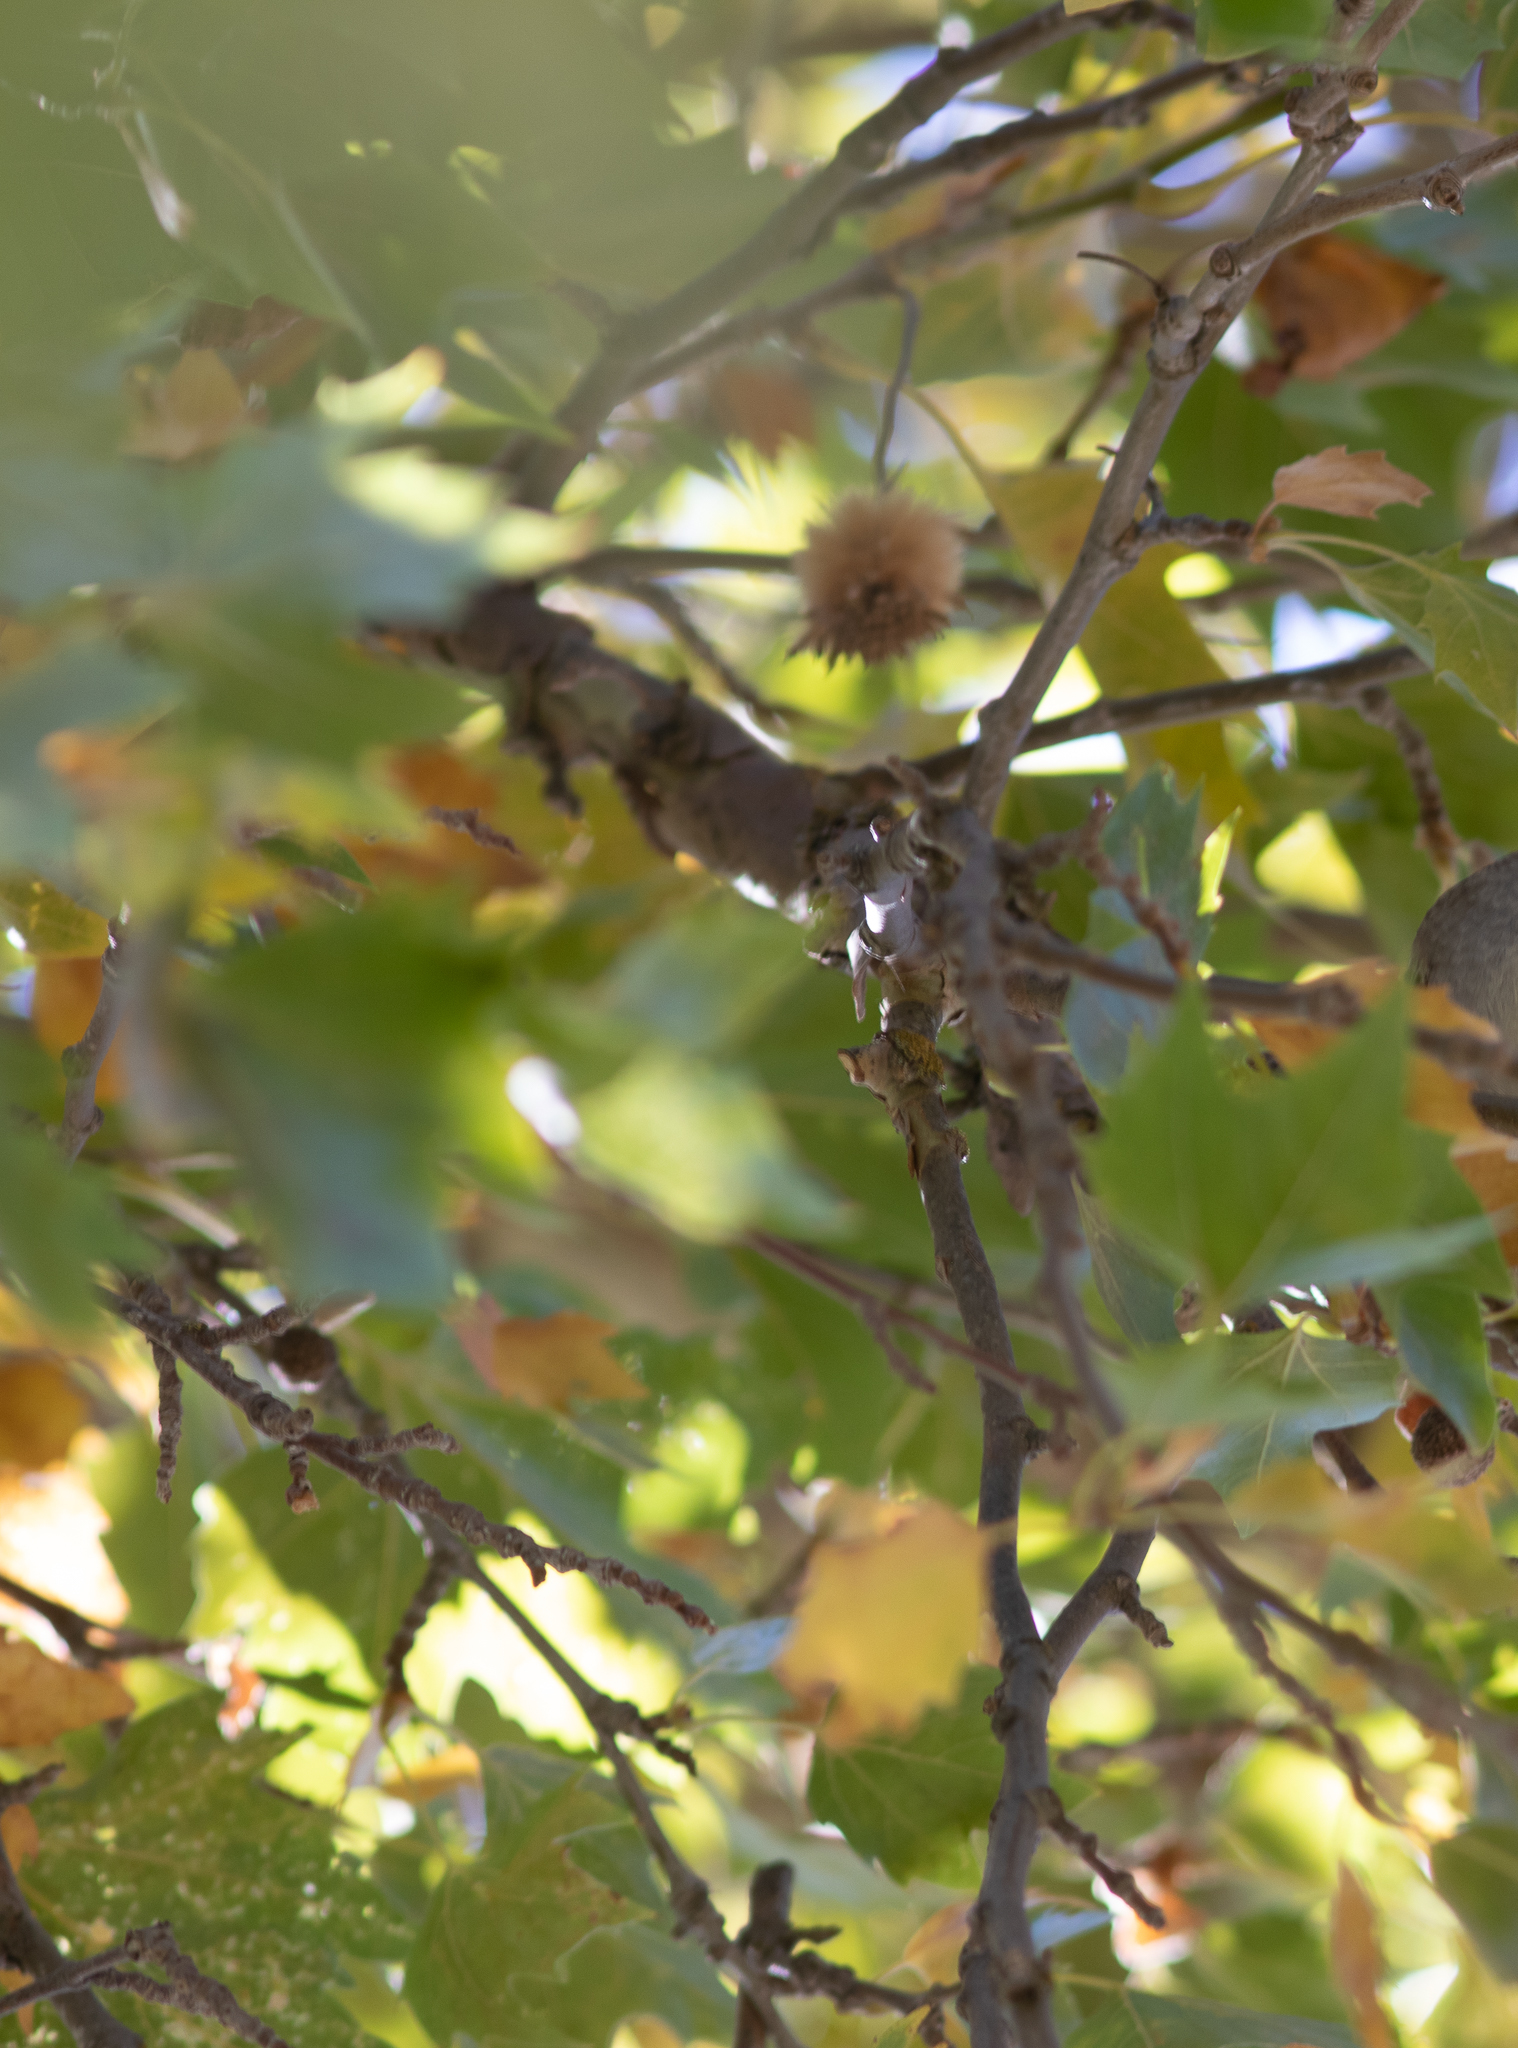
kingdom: Plantae
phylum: Tracheophyta
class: Magnoliopsida
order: Proteales
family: Platanaceae
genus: Platanus
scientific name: Platanus racemosa
